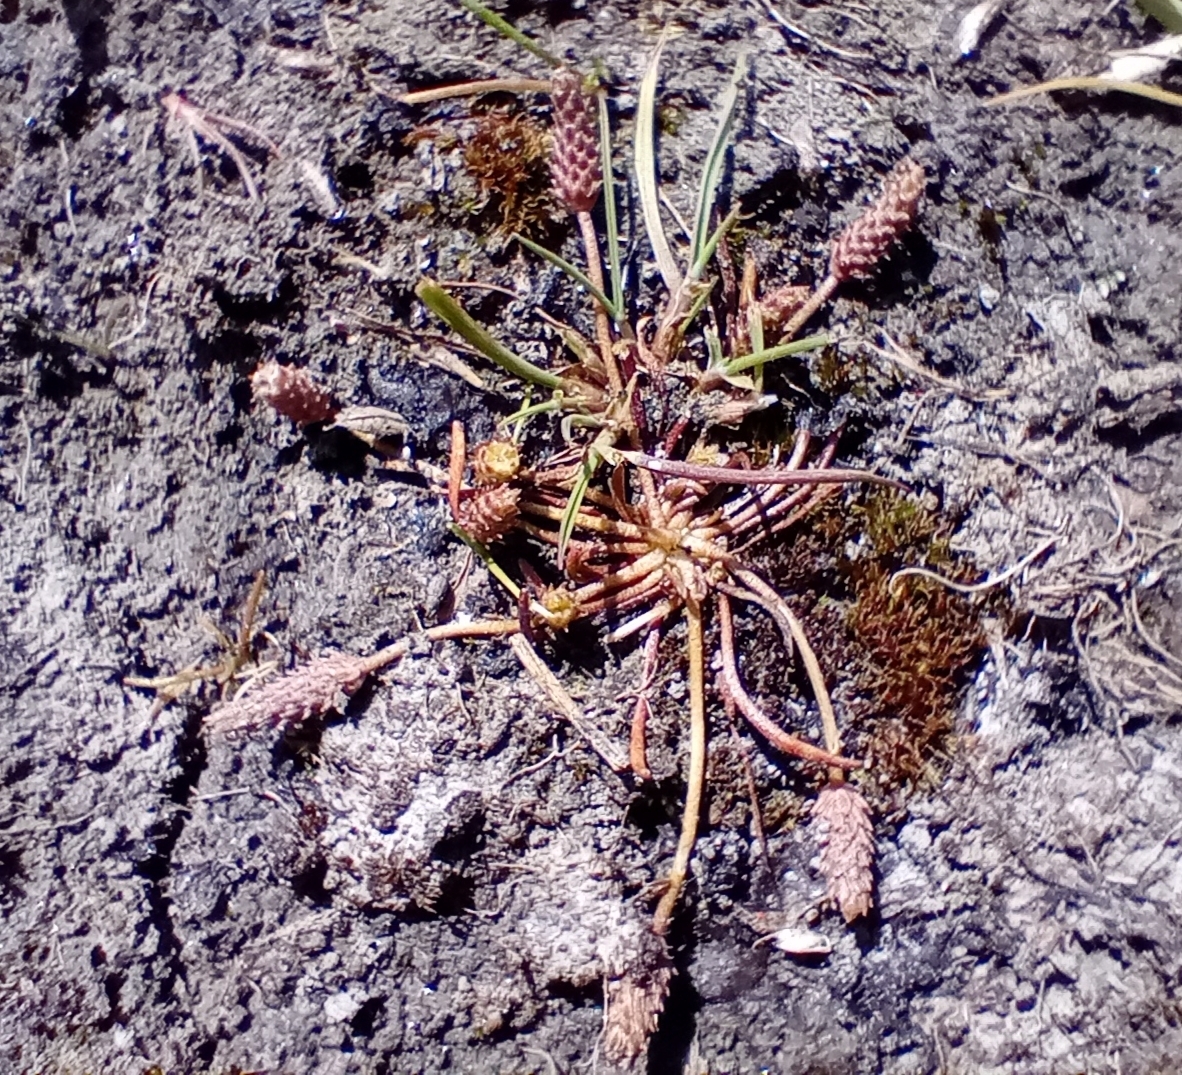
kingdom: Plantae
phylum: Tracheophyta
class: Magnoliopsida
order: Ranunculales
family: Ranunculaceae
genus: Myosurus
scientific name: Myosurus minimus
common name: Mousetail
